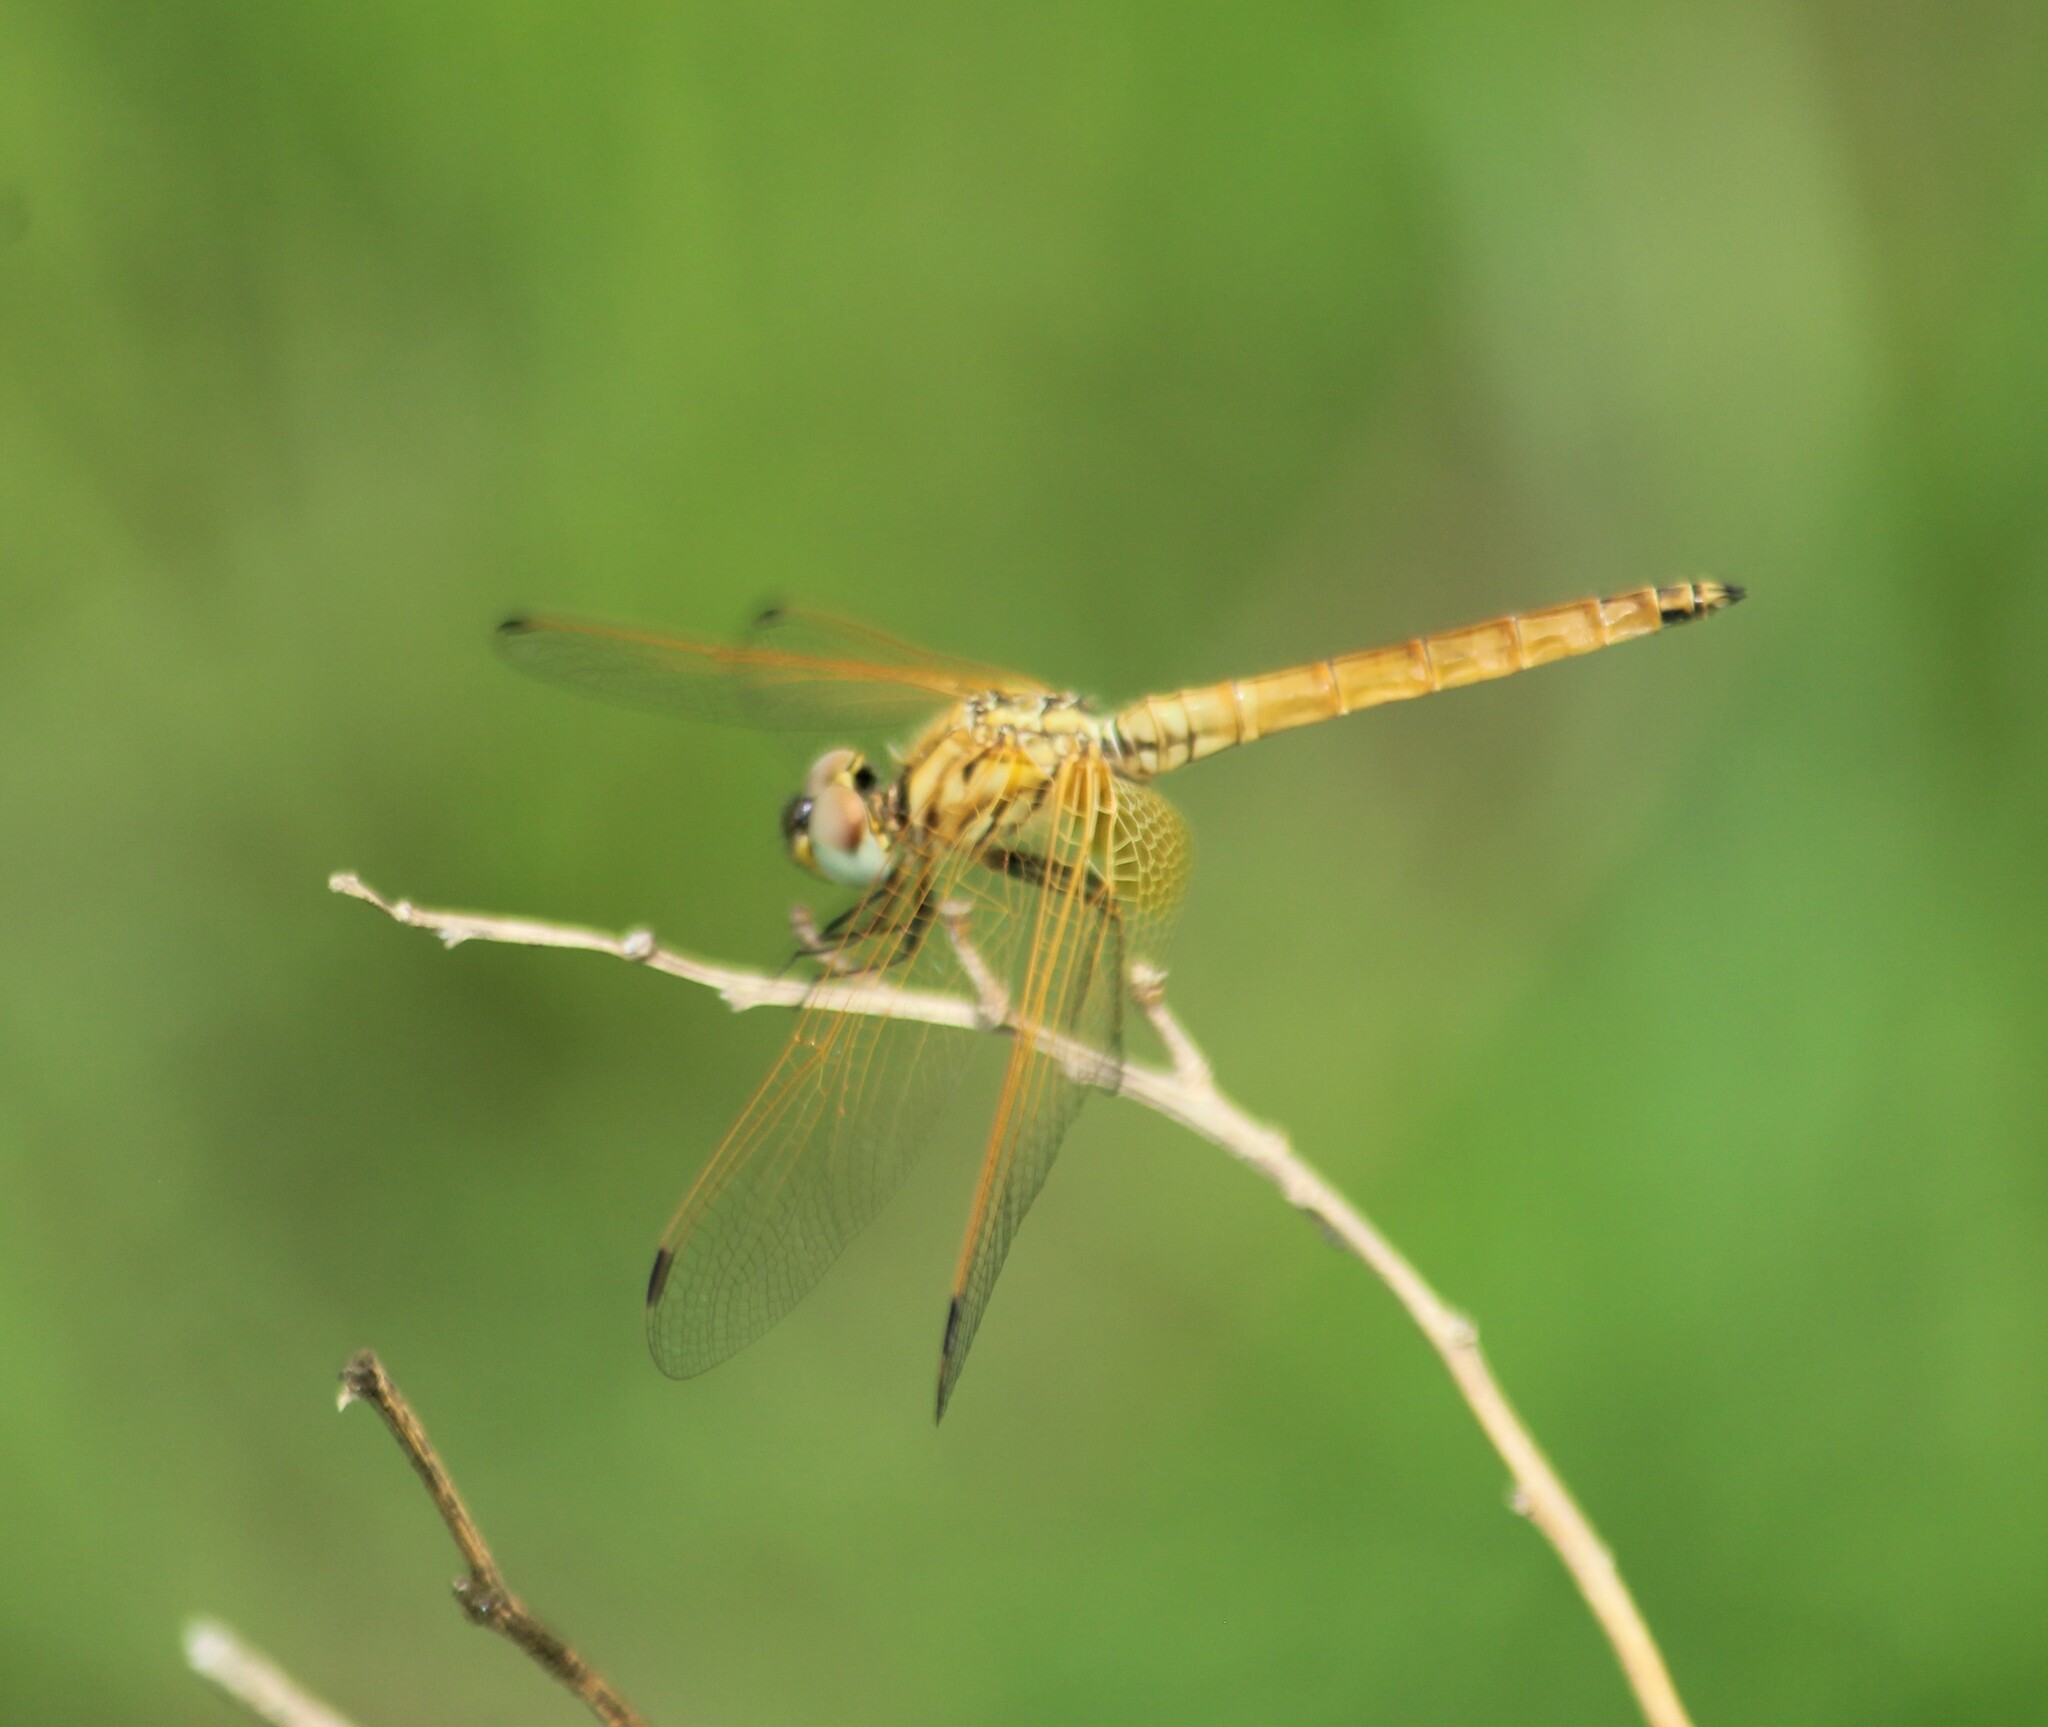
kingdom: Animalia
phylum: Arthropoda
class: Insecta
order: Odonata
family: Libellulidae
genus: Trithemis
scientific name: Trithemis aurora
